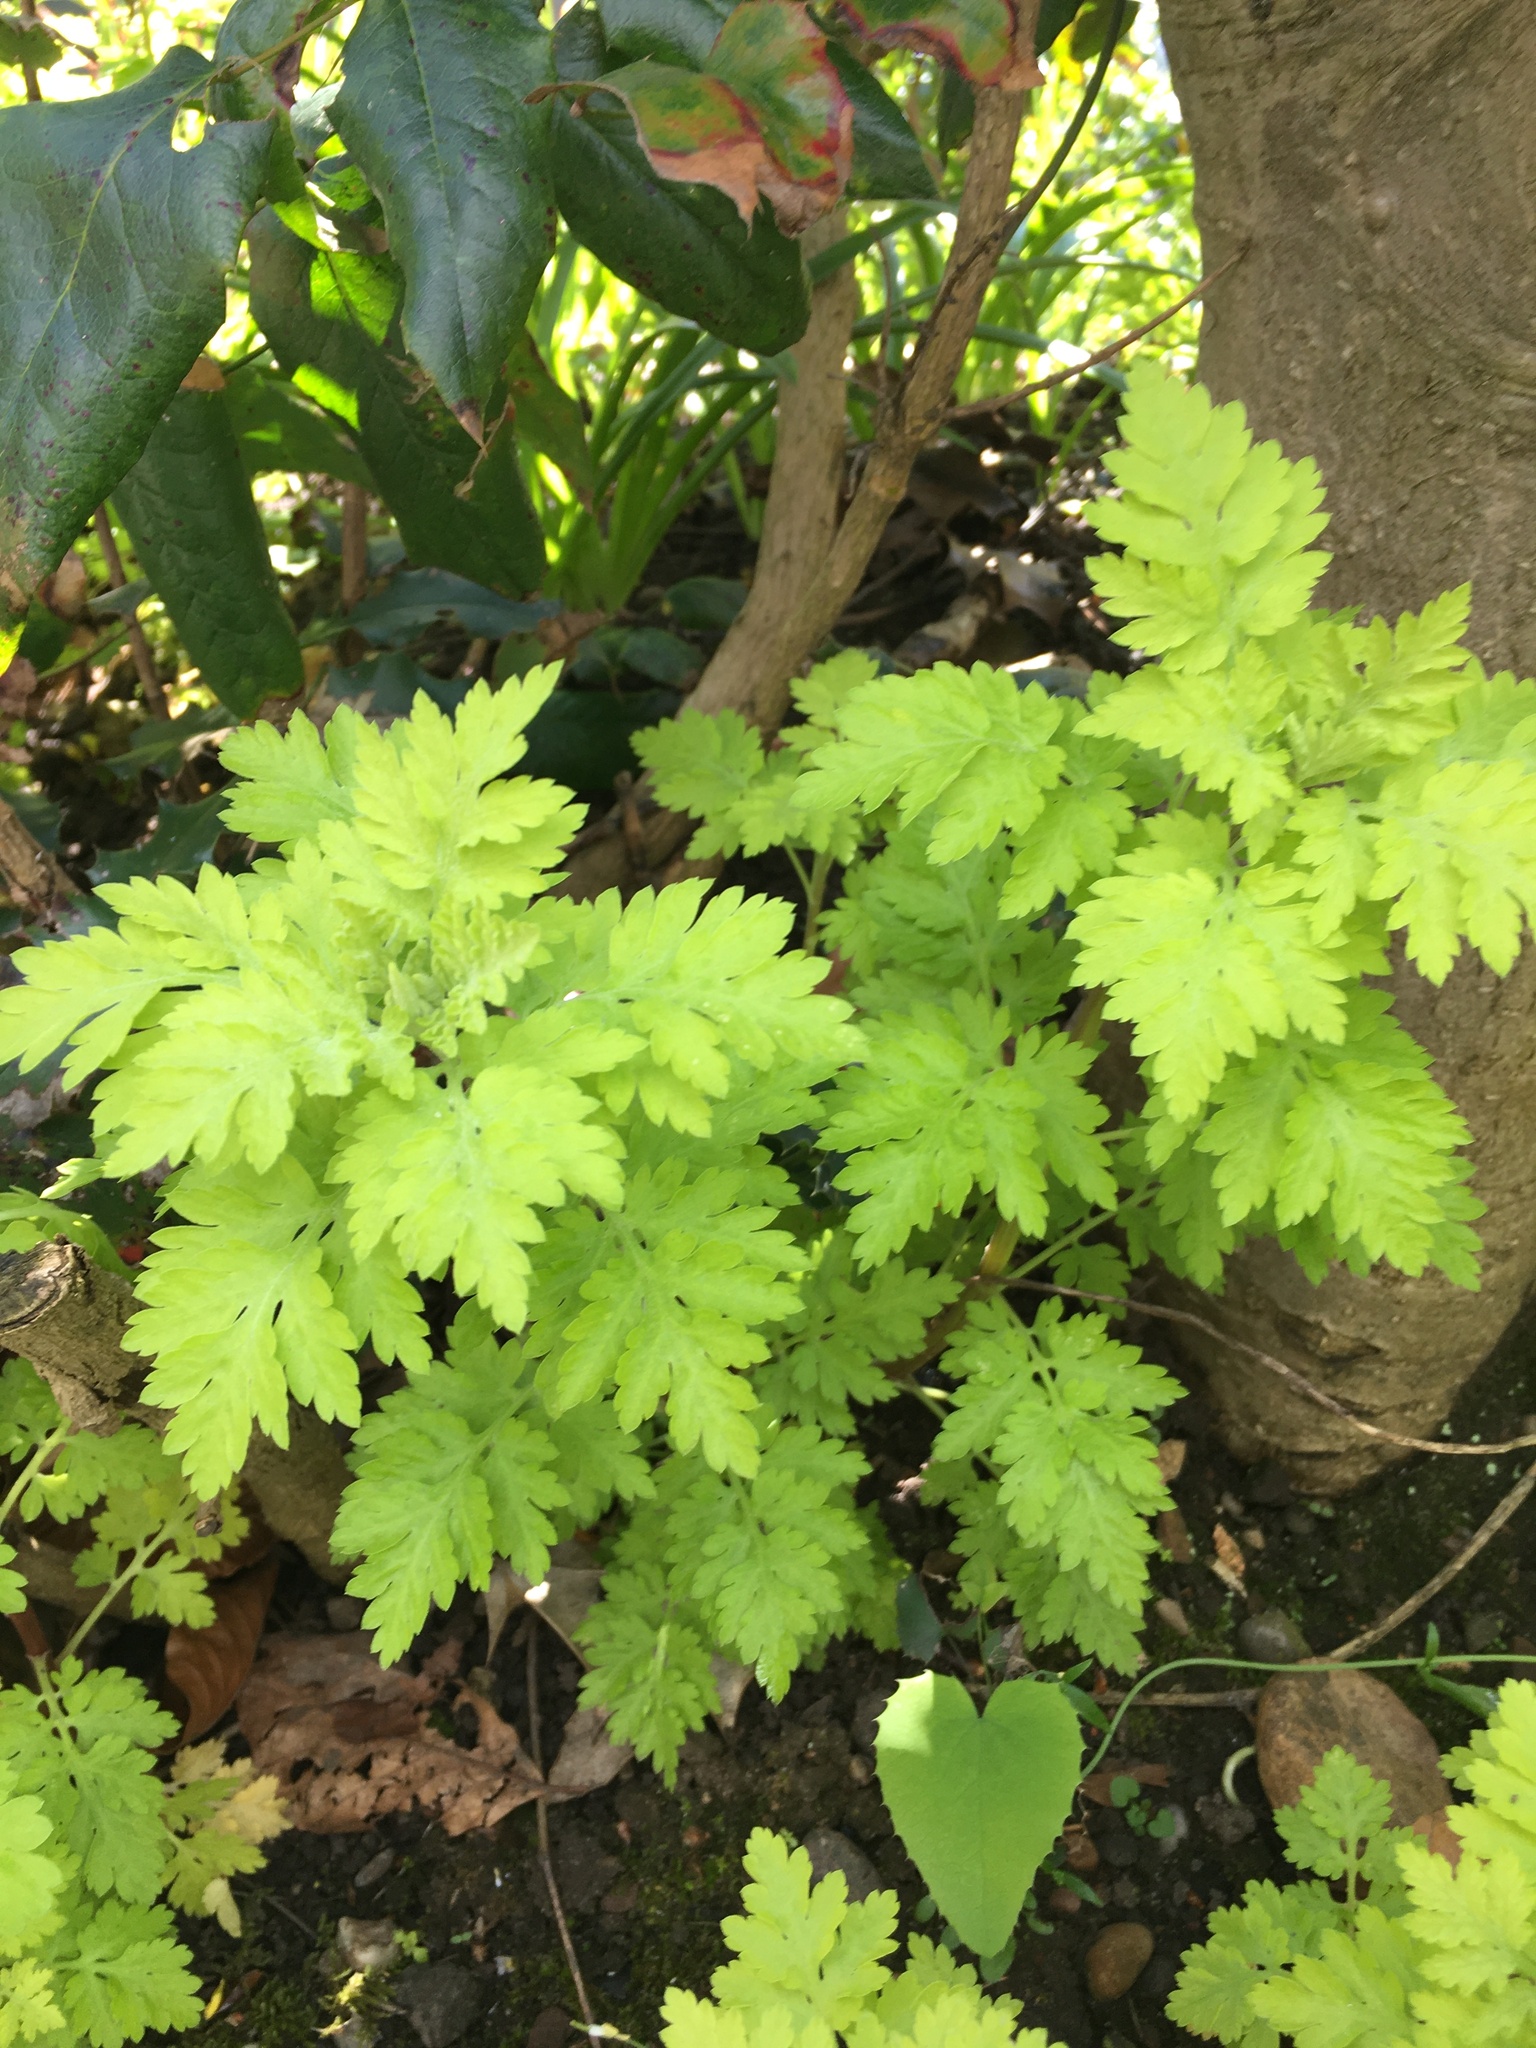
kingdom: Plantae
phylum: Tracheophyta
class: Magnoliopsida
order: Asterales
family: Asteraceae
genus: Tanacetum
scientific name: Tanacetum parthenium
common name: Feverfew
